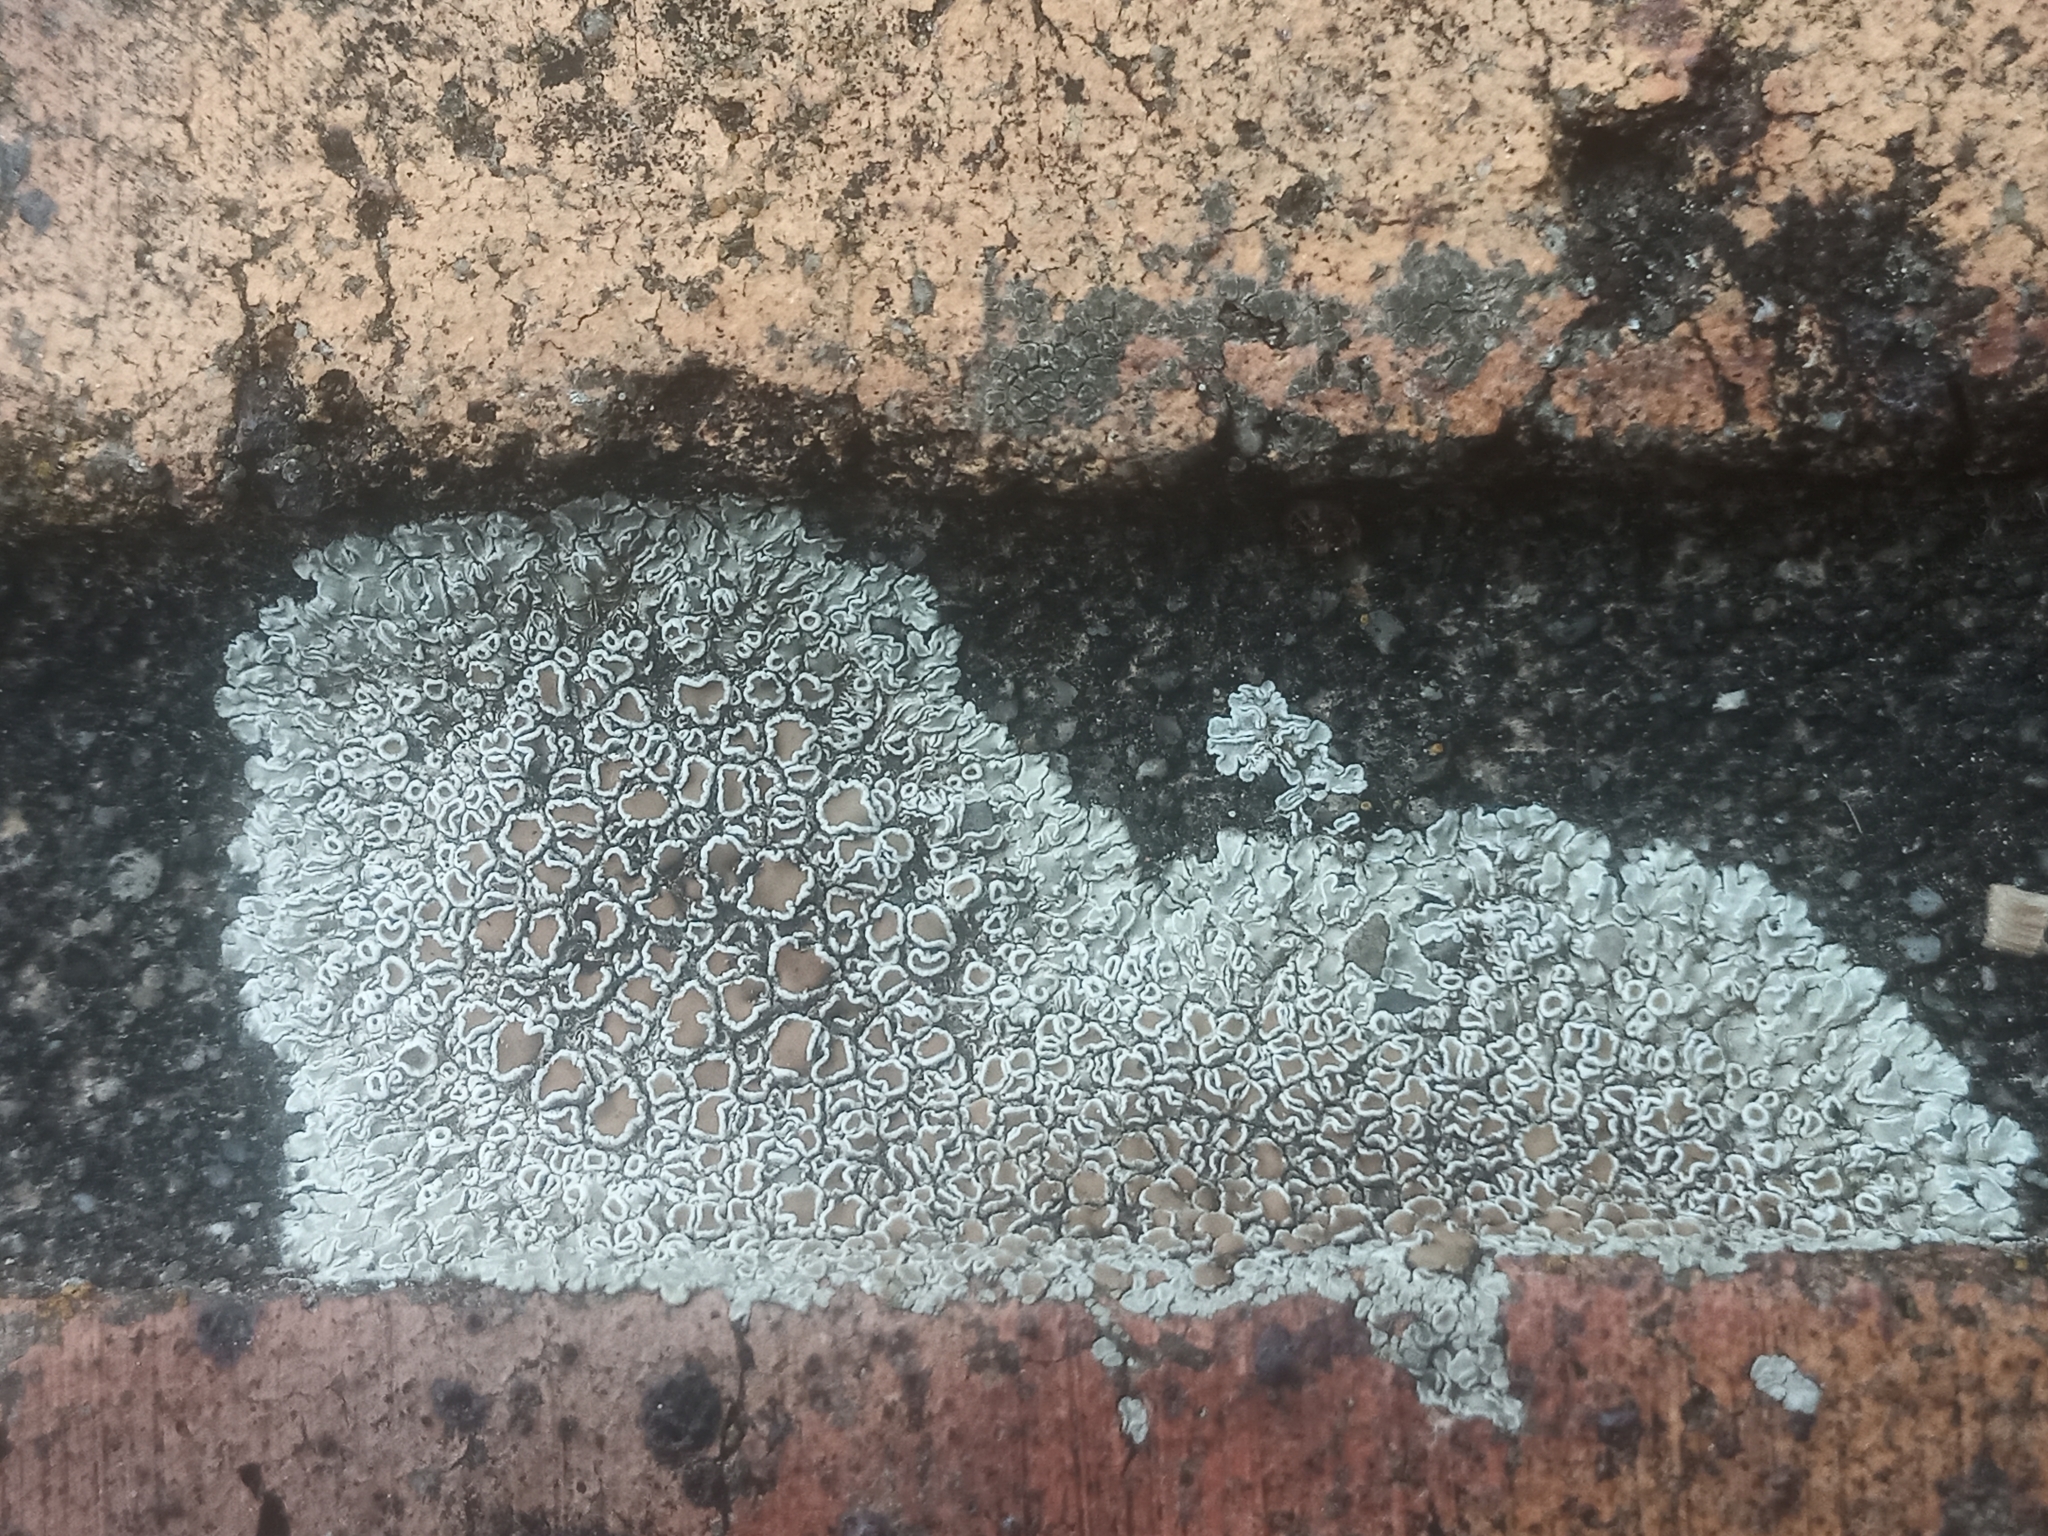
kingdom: Fungi
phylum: Ascomycota
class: Lecanoromycetes
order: Lecanorales
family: Lecanoraceae
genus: Protoparmeliopsis
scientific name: Protoparmeliopsis muralis
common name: Stonewall rim lichen
